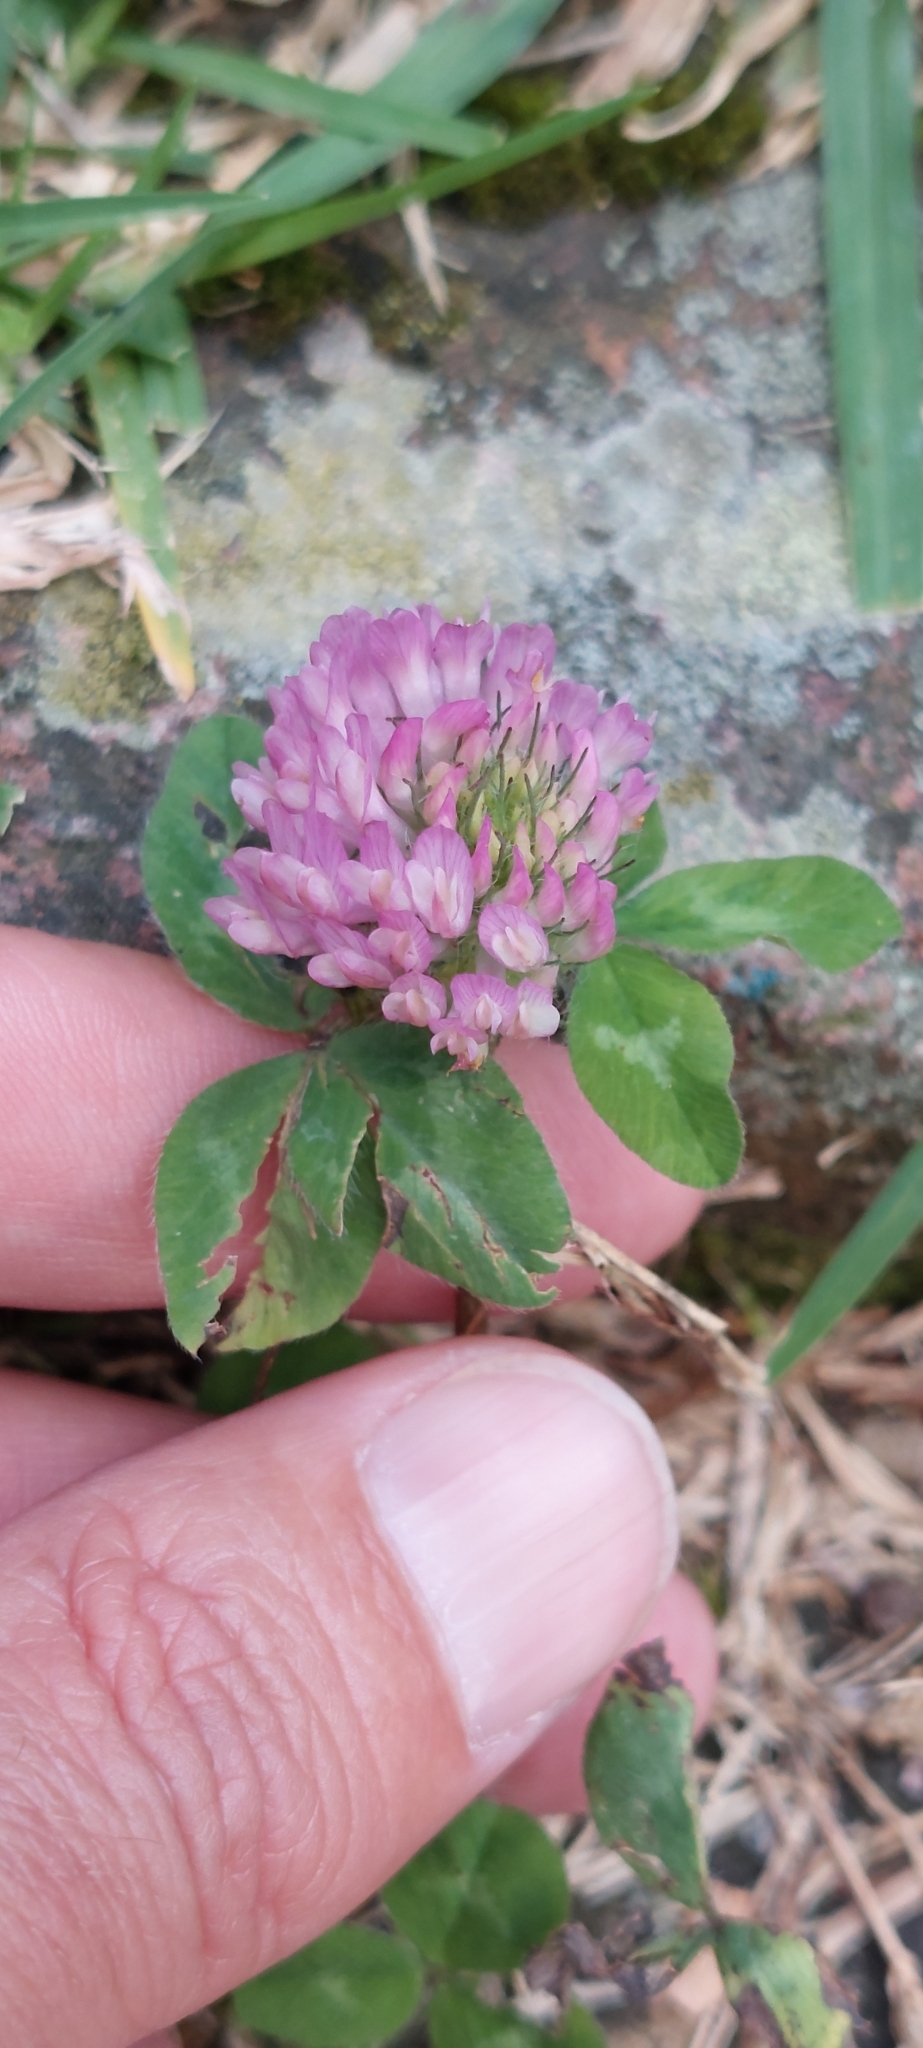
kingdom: Plantae
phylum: Tracheophyta
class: Magnoliopsida
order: Fabales
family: Fabaceae
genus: Trifolium
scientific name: Trifolium pratense
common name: Red clover
